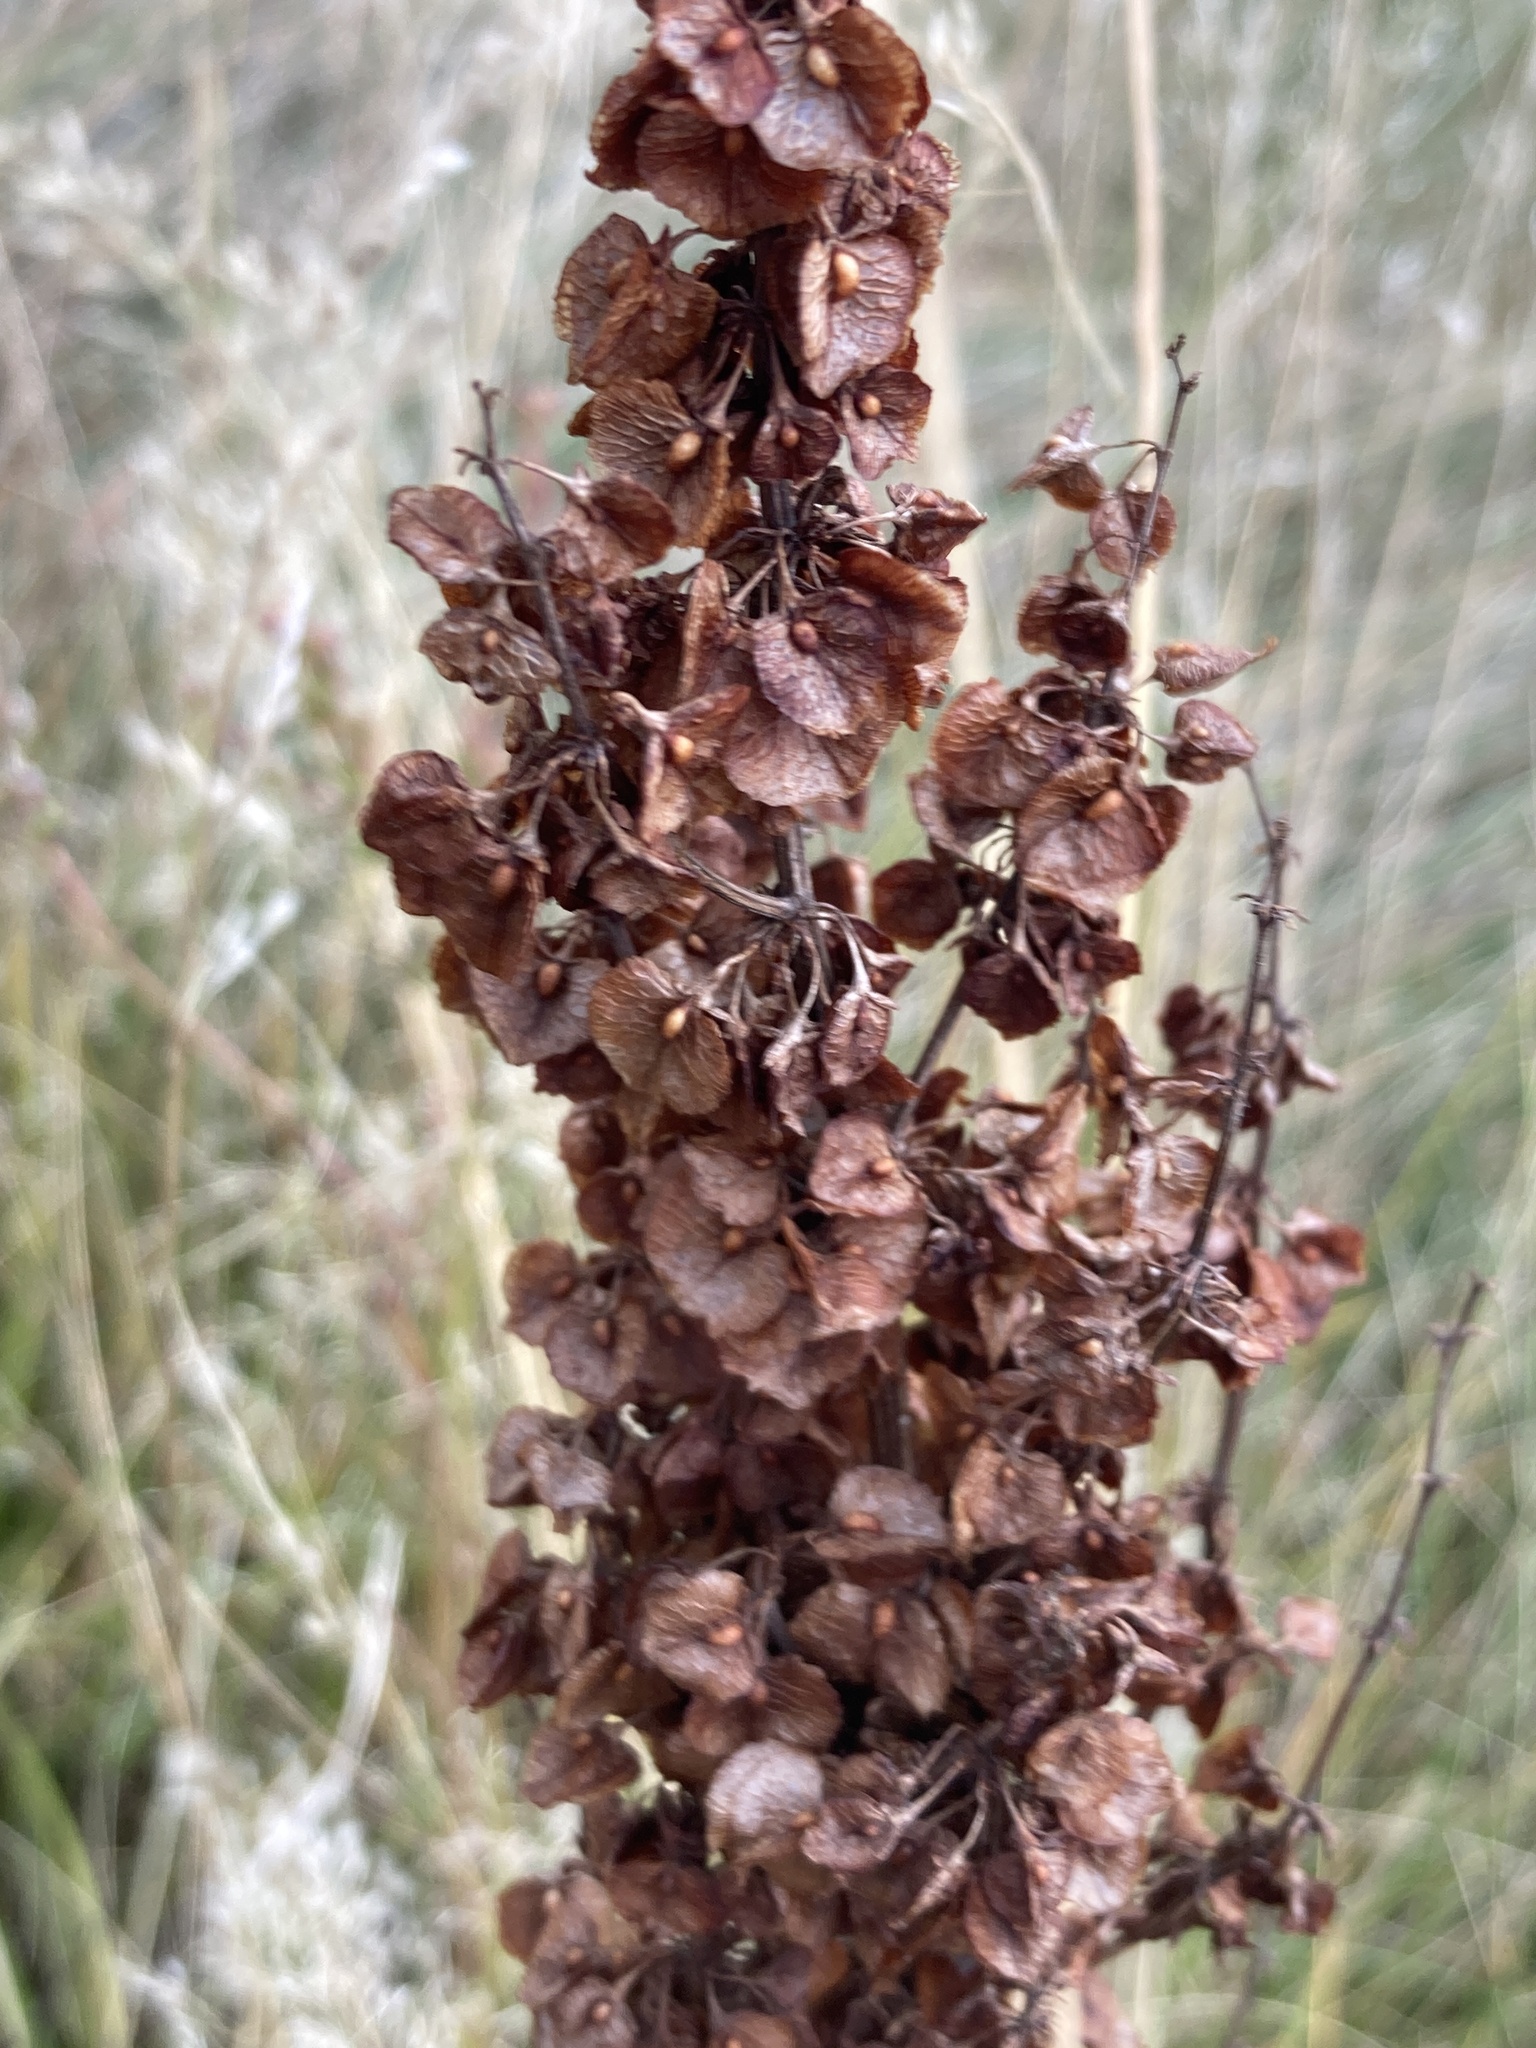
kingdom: Plantae
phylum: Tracheophyta
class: Magnoliopsida
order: Caryophyllales
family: Polygonaceae
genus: Rumex
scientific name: Rumex confertus
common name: Russian dock
